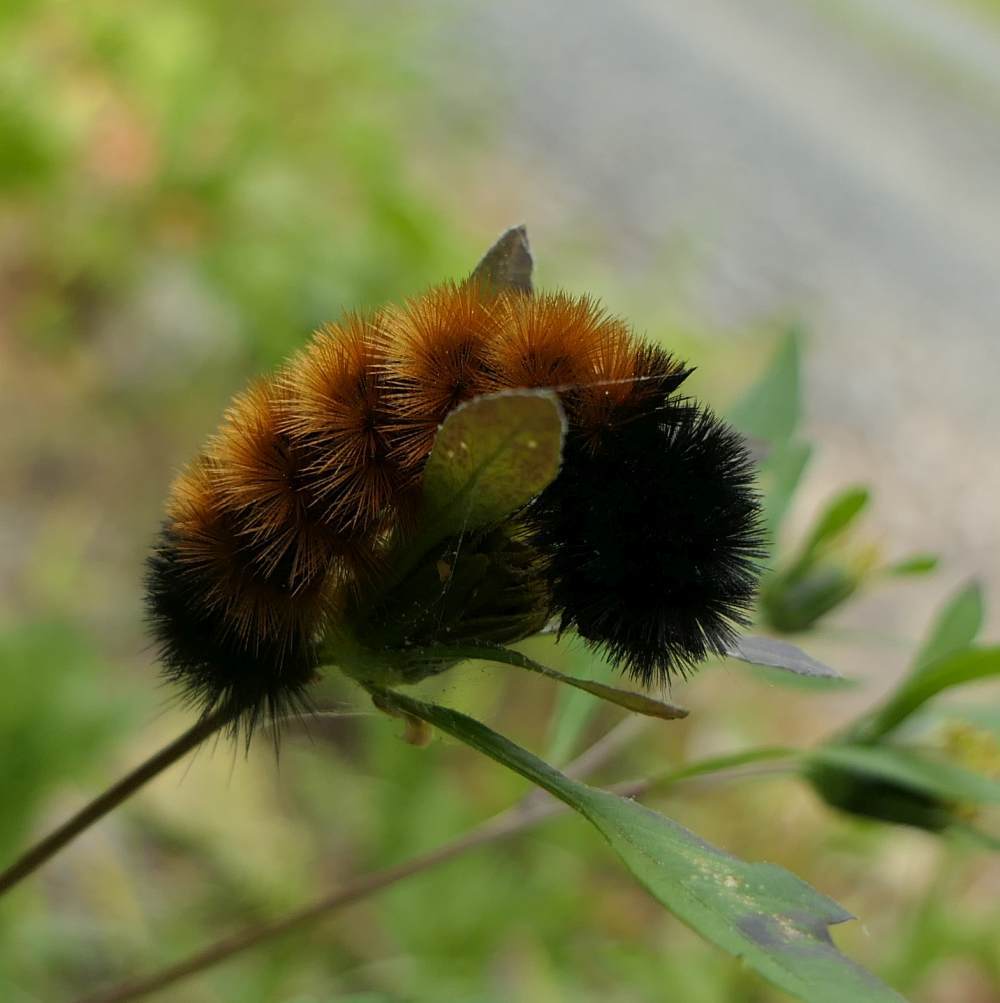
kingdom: Animalia
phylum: Arthropoda
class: Insecta
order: Lepidoptera
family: Erebidae
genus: Pyrrharctia
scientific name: Pyrrharctia isabella
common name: Isabella tiger moth
